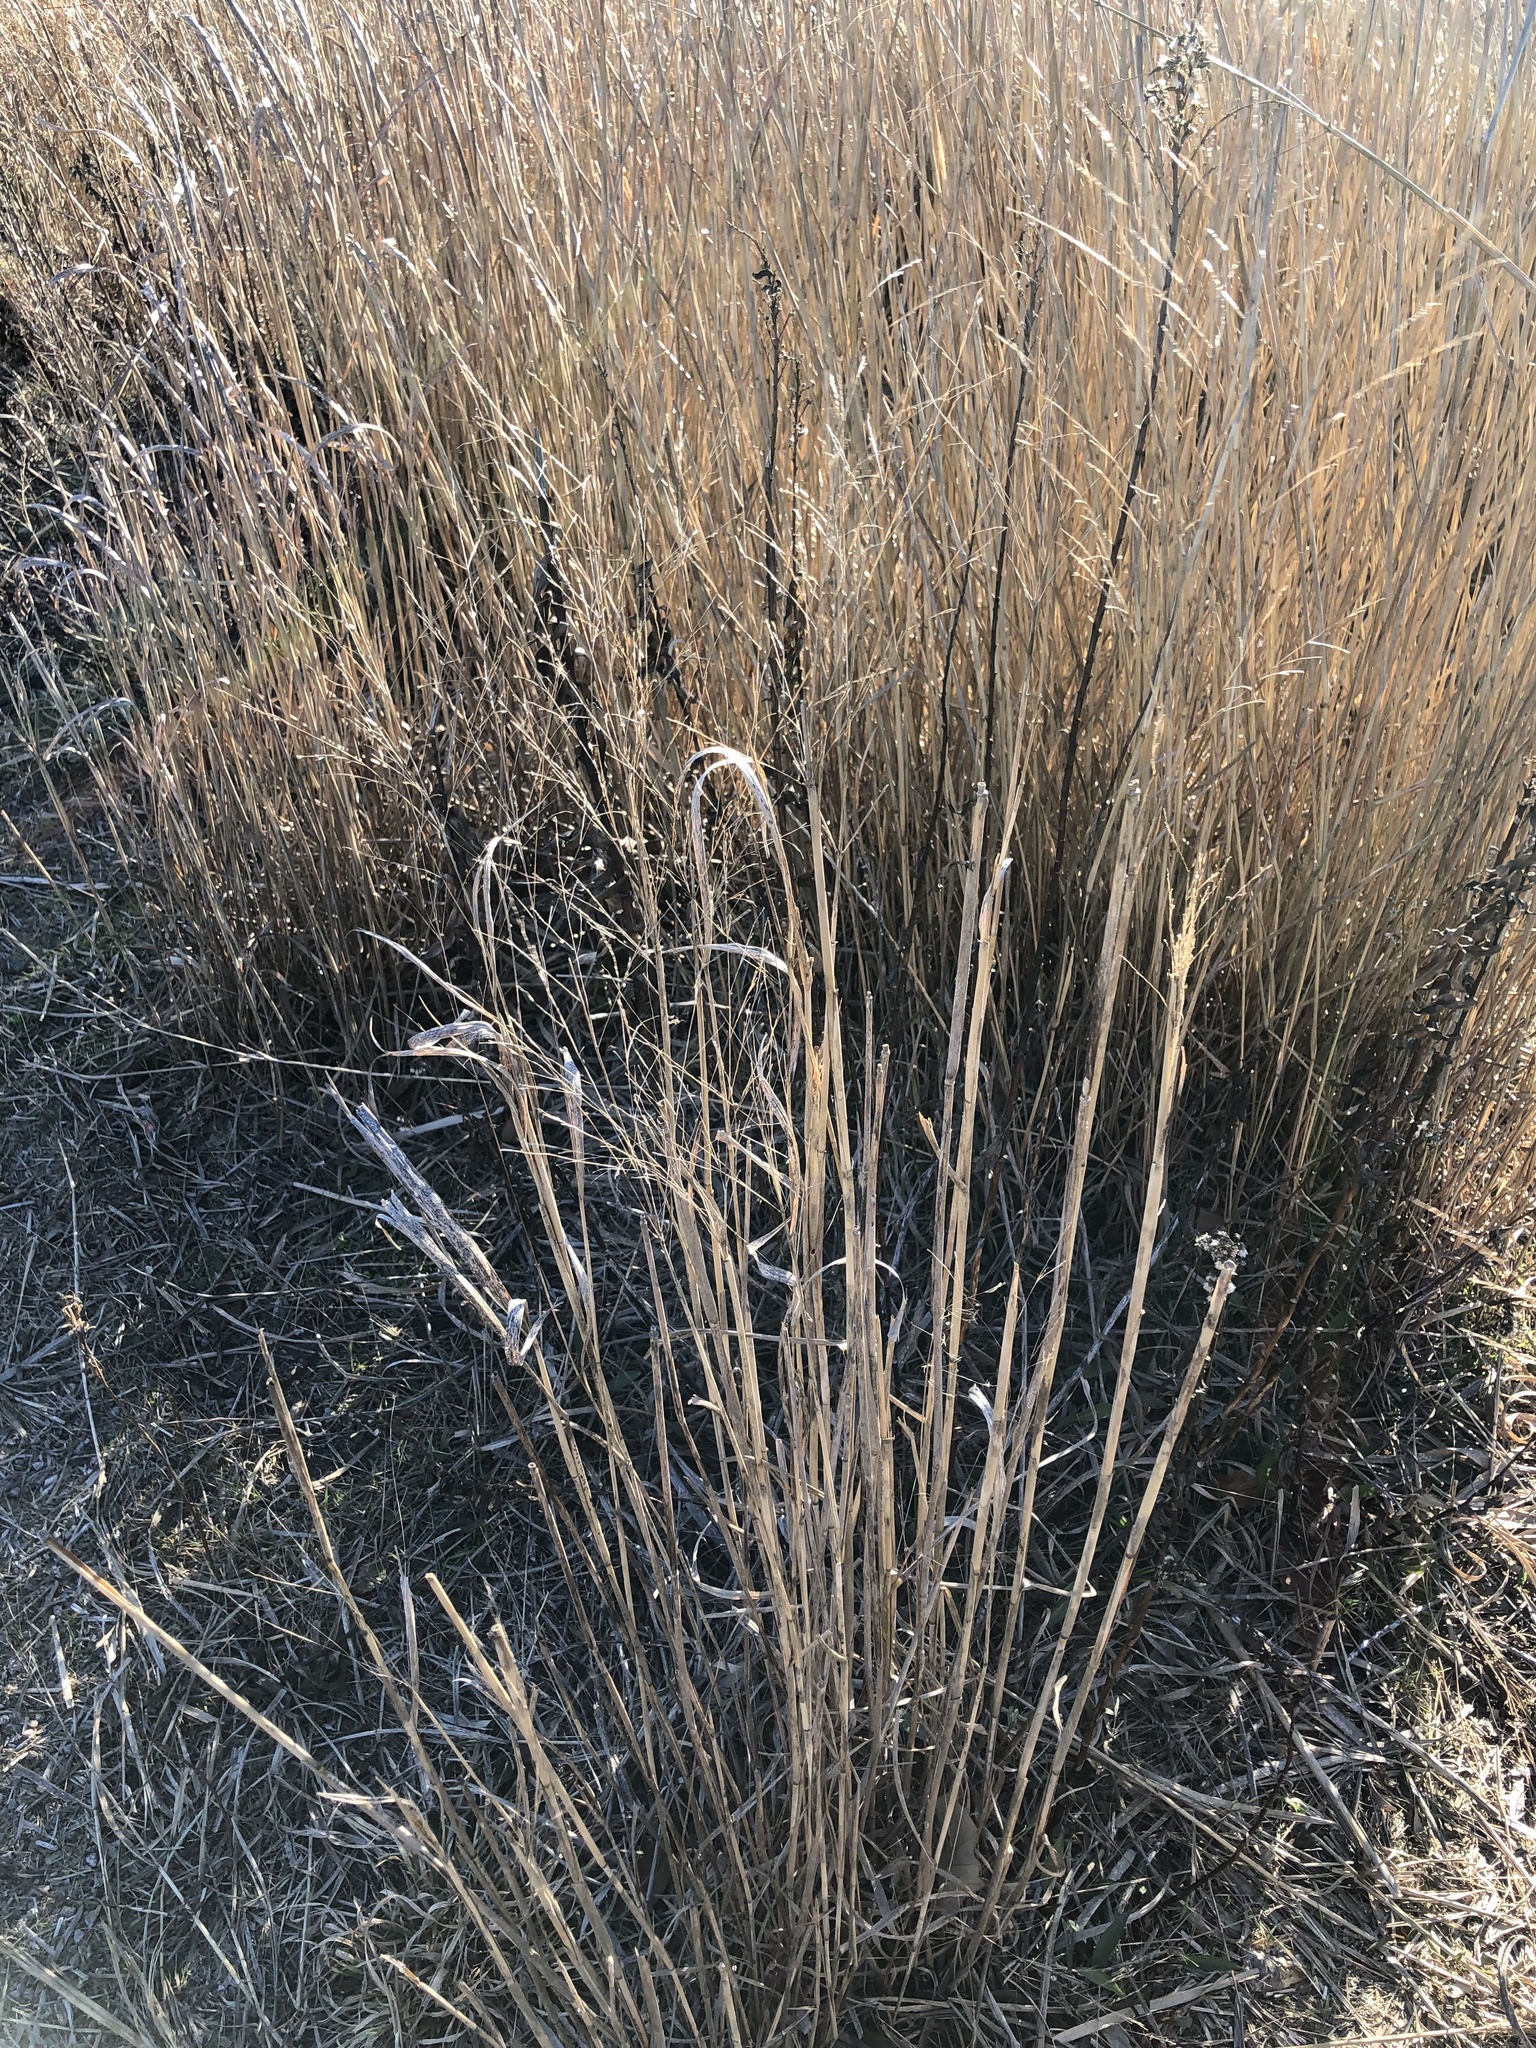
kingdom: Plantae
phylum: Tracheophyta
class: Liliopsida
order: Poales
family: Poaceae
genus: Panicum
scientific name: Panicum virgatum
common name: Switchgrass
